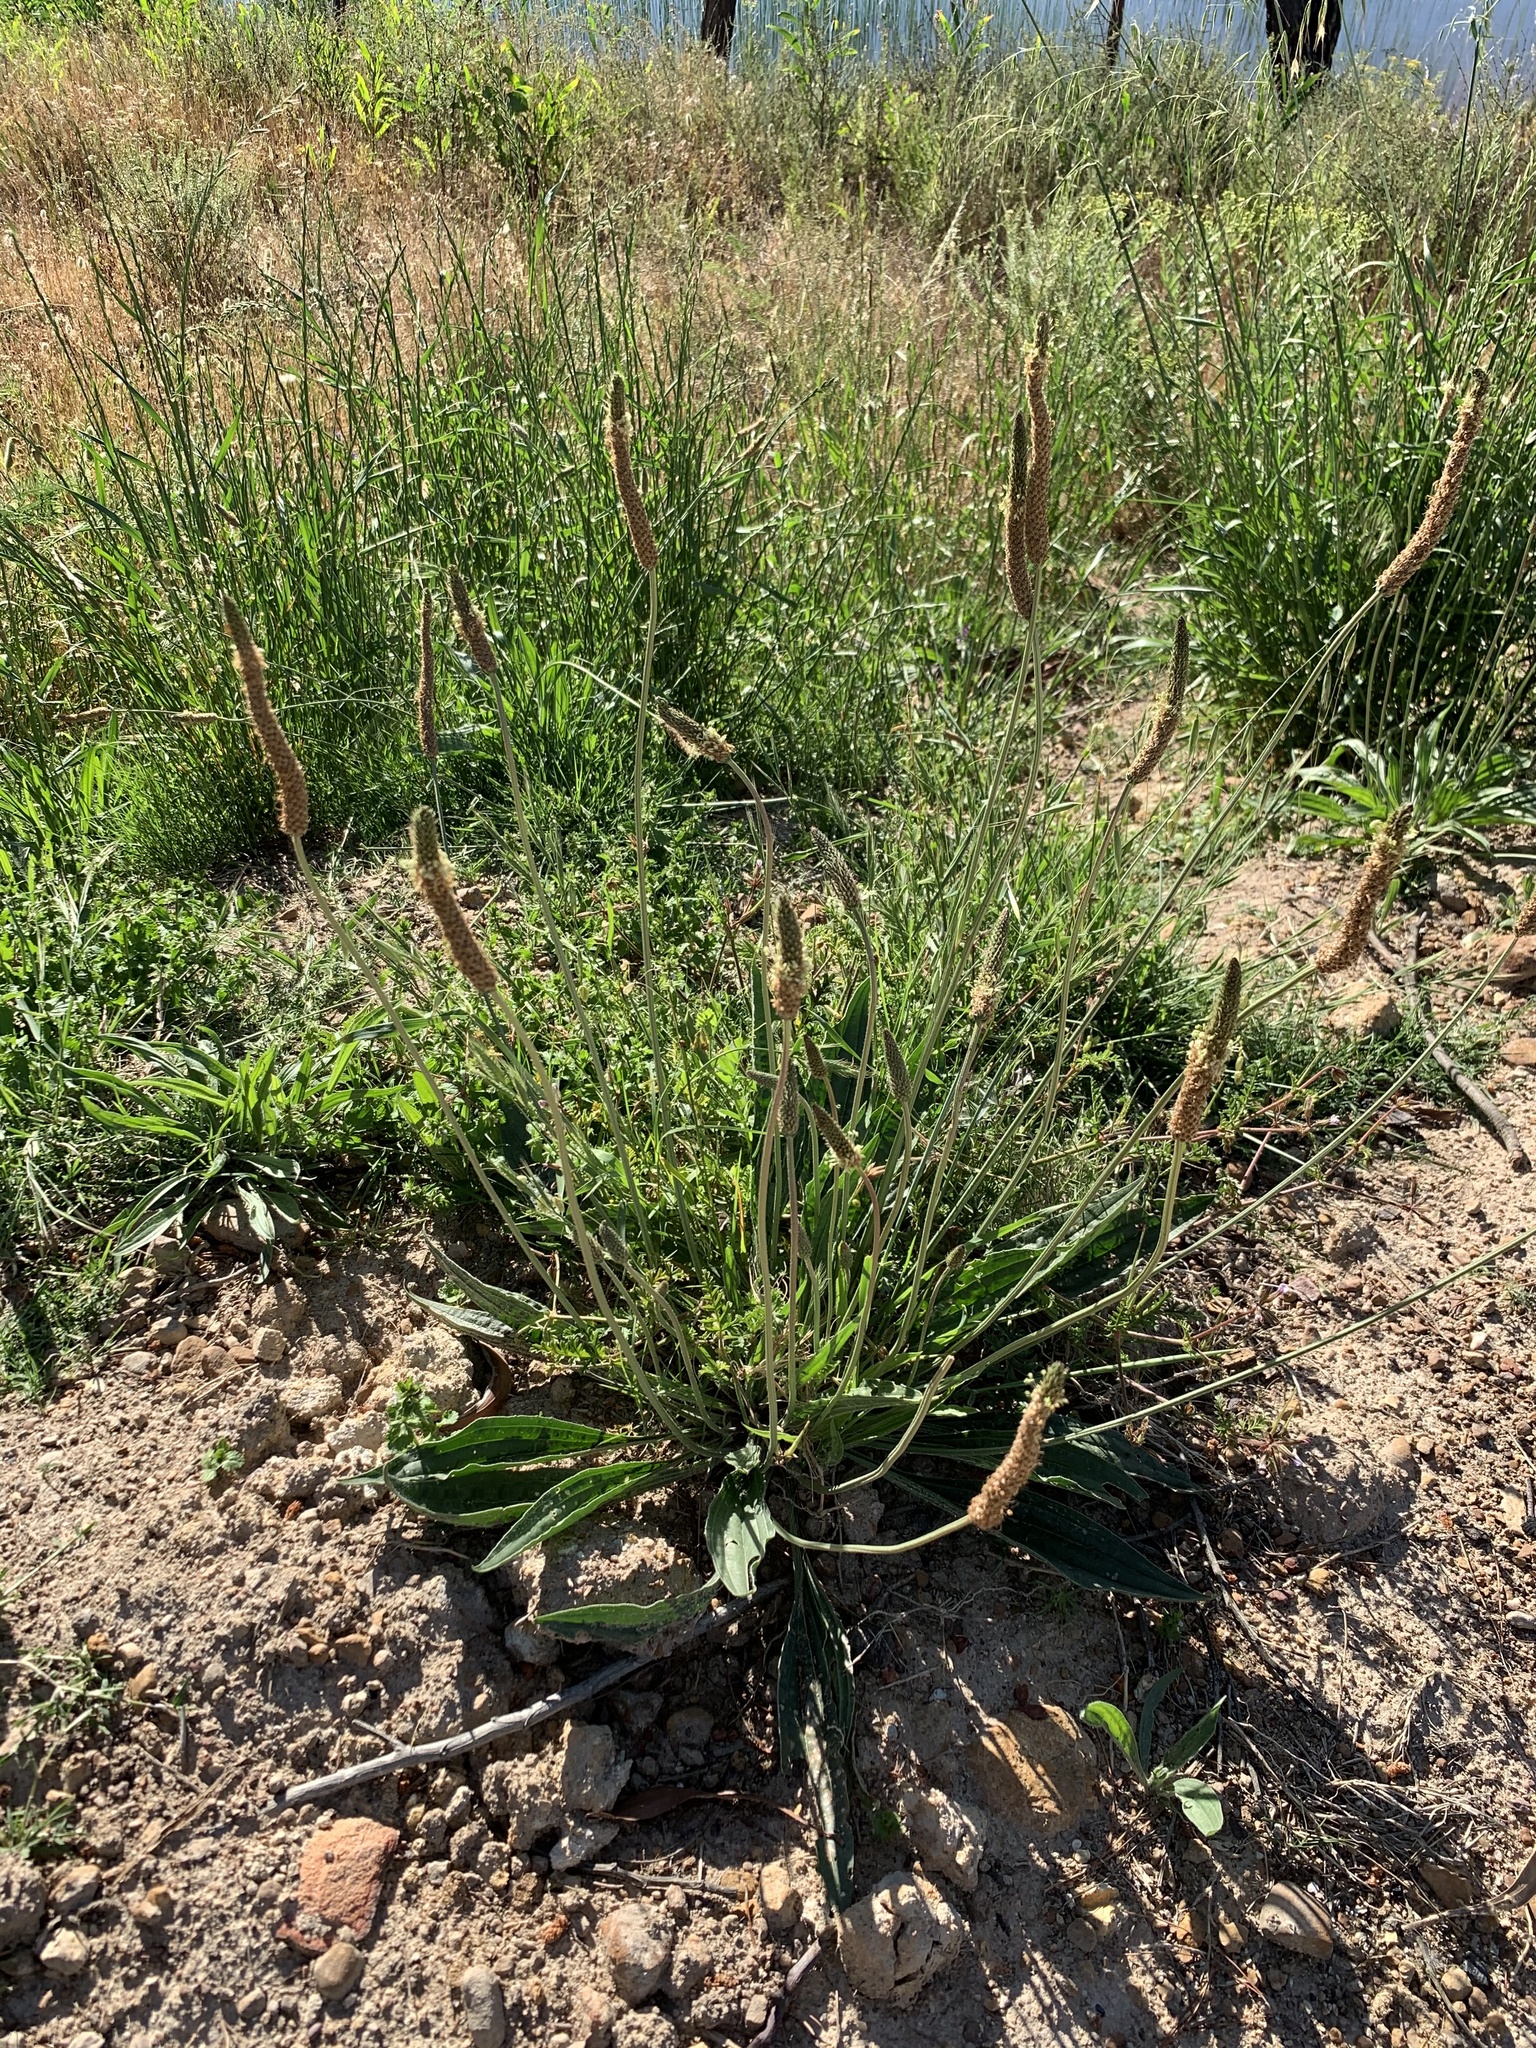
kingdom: Plantae
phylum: Tracheophyta
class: Magnoliopsida
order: Lamiales
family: Plantaginaceae
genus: Plantago
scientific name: Plantago lanceolata
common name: Ribwort plantain
